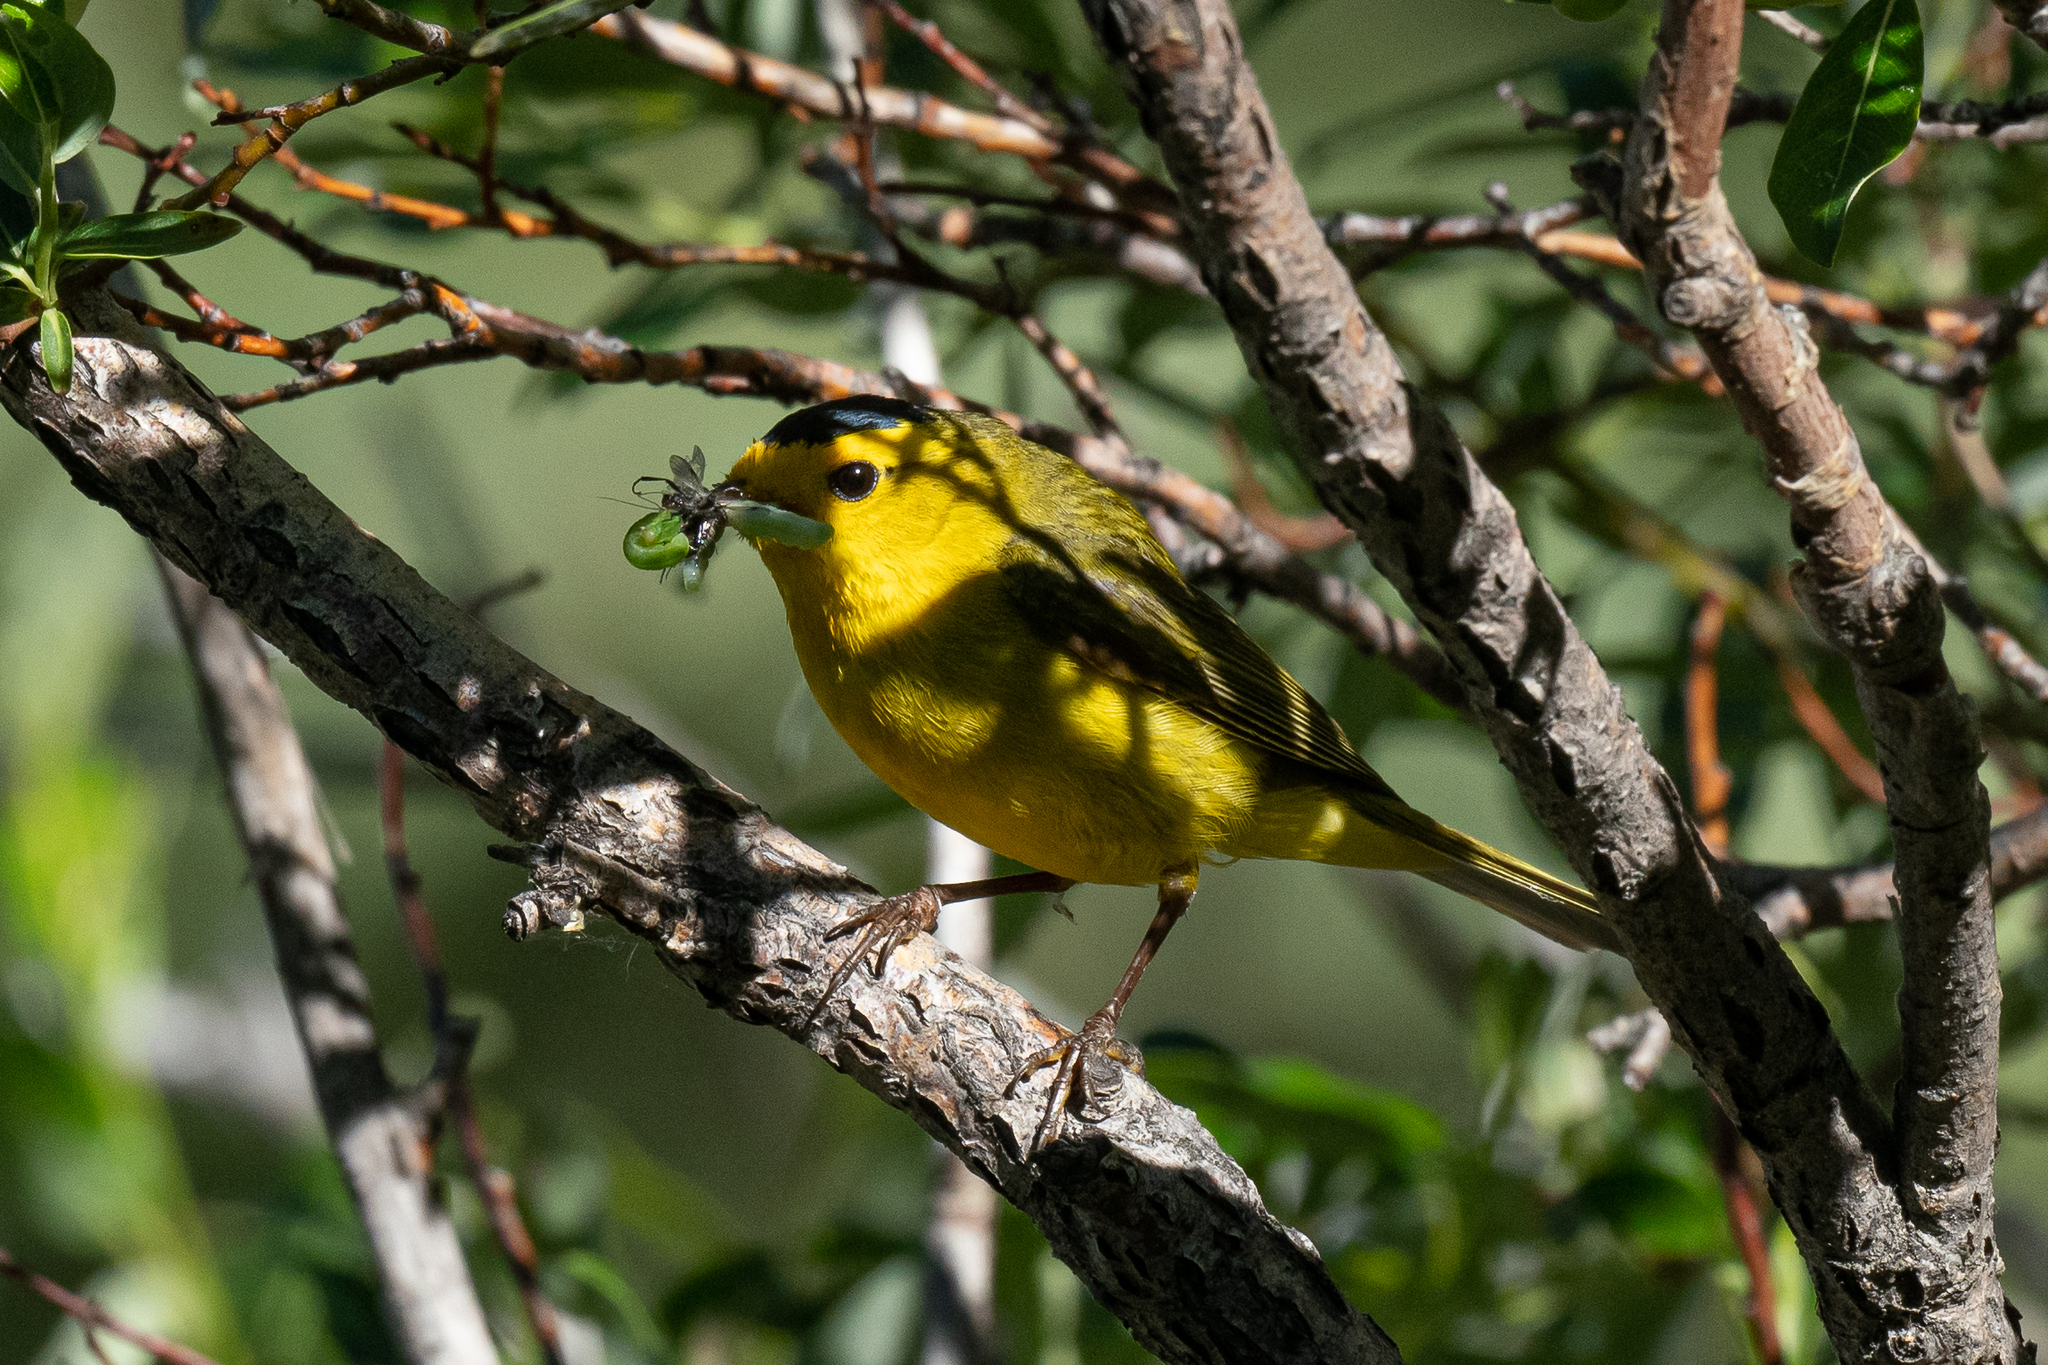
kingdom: Animalia
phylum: Chordata
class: Aves
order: Passeriformes
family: Parulidae
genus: Cardellina
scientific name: Cardellina pusilla
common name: Wilson's warbler
